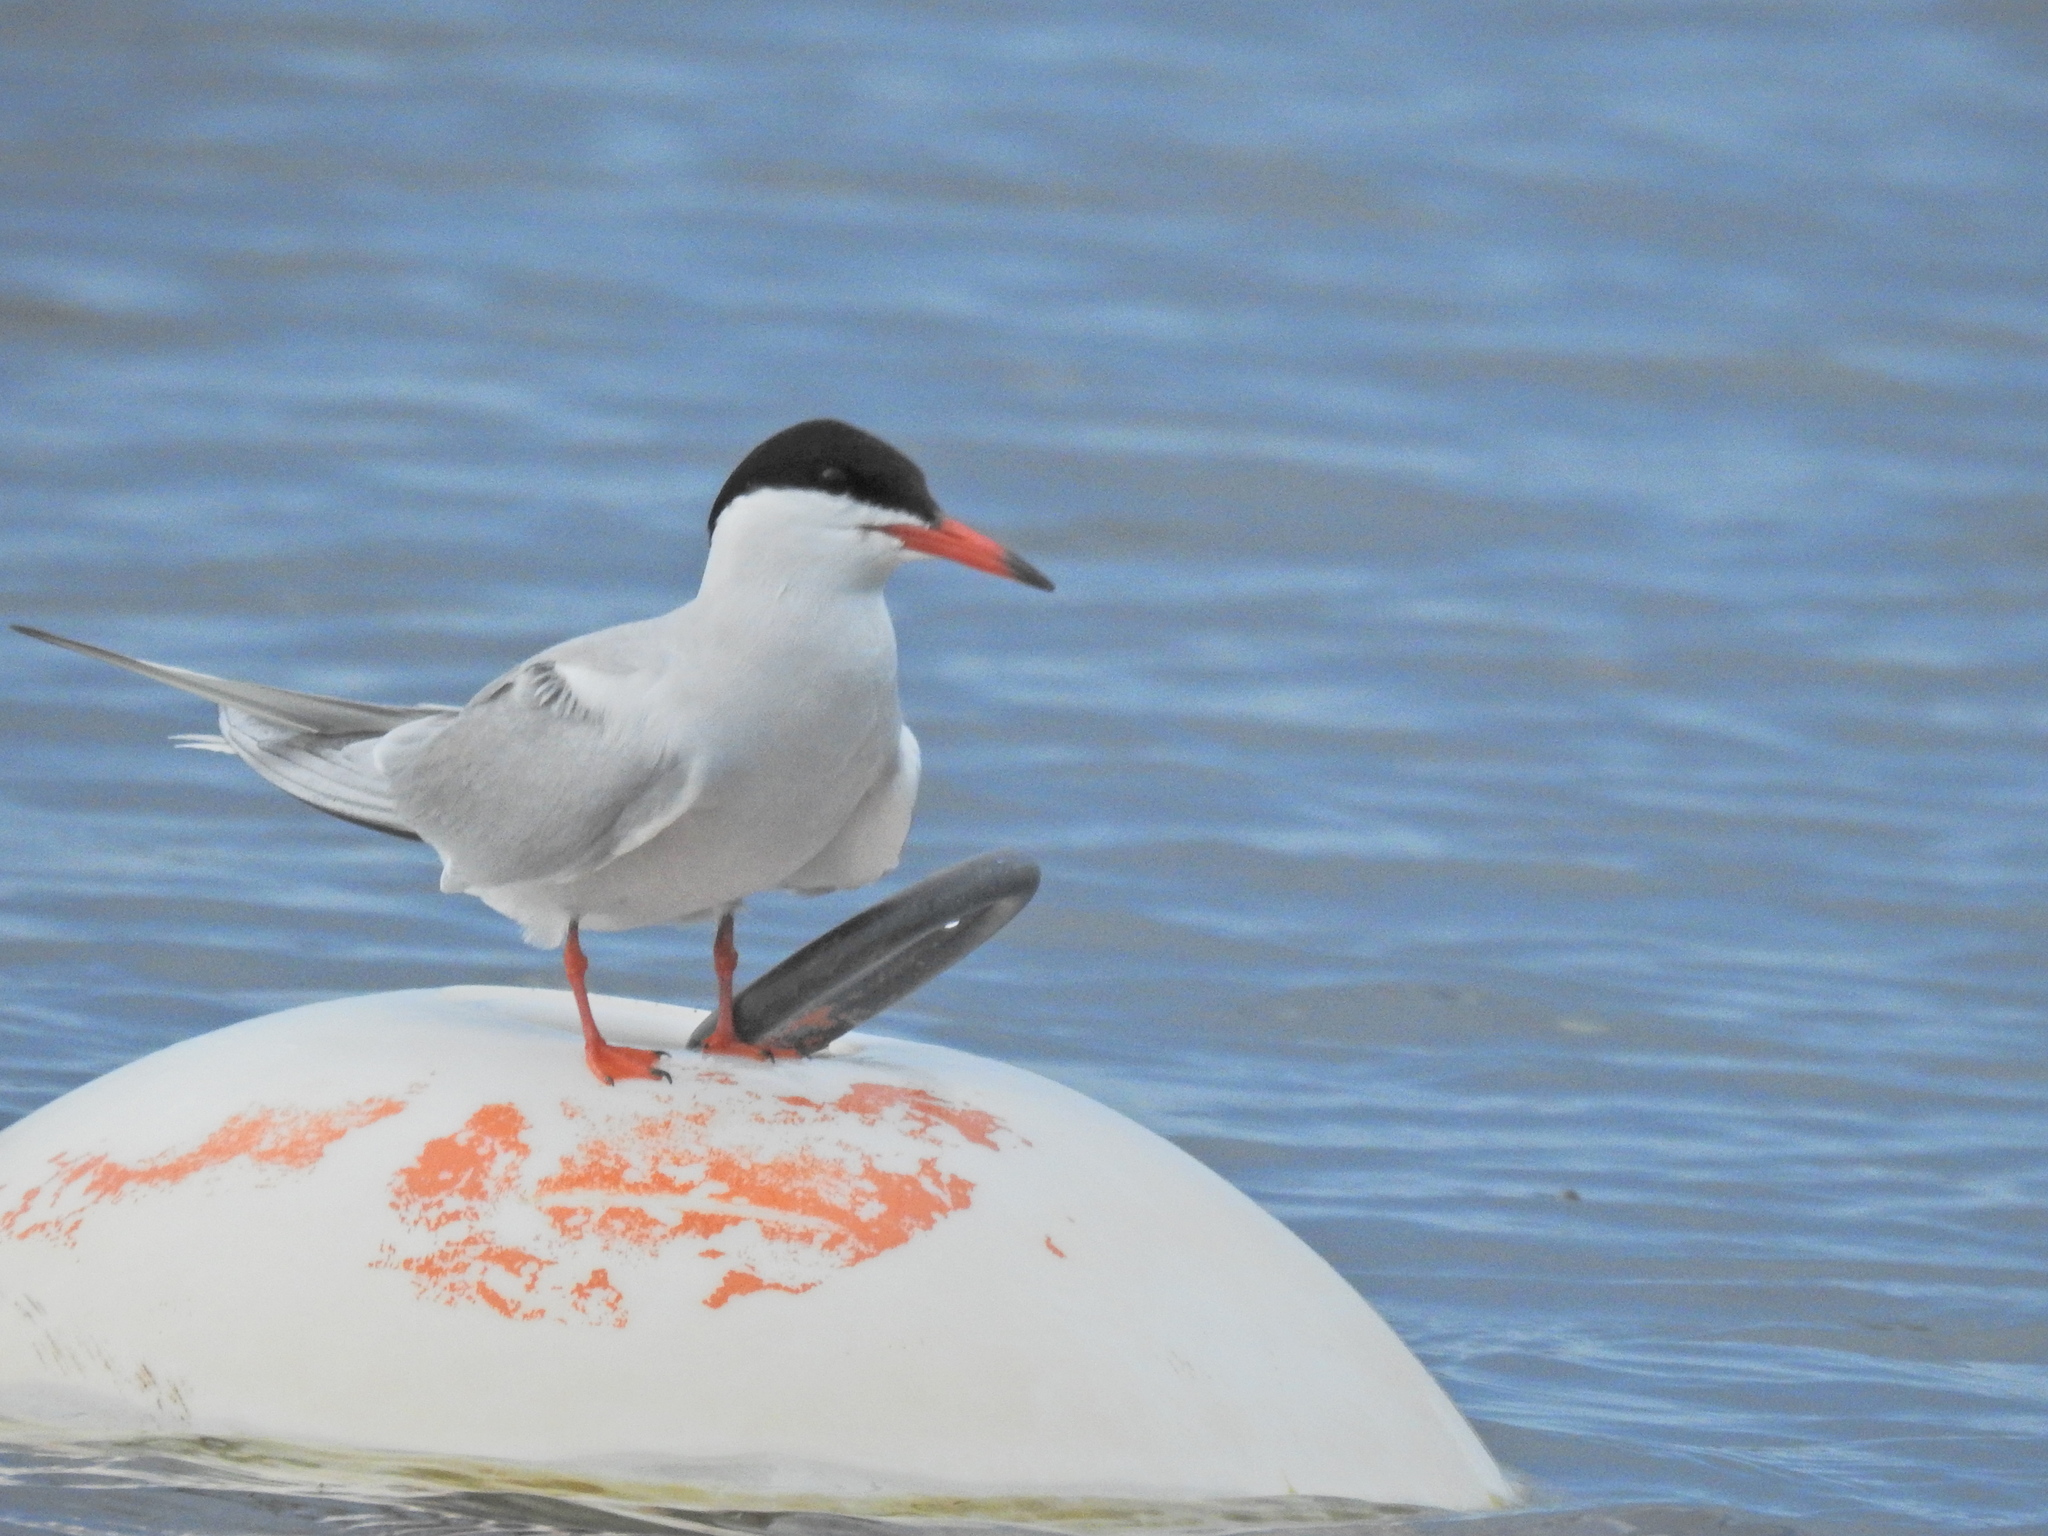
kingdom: Animalia
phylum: Chordata
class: Aves
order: Charadriiformes
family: Laridae
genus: Sterna
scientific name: Sterna hirundo
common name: Common tern
